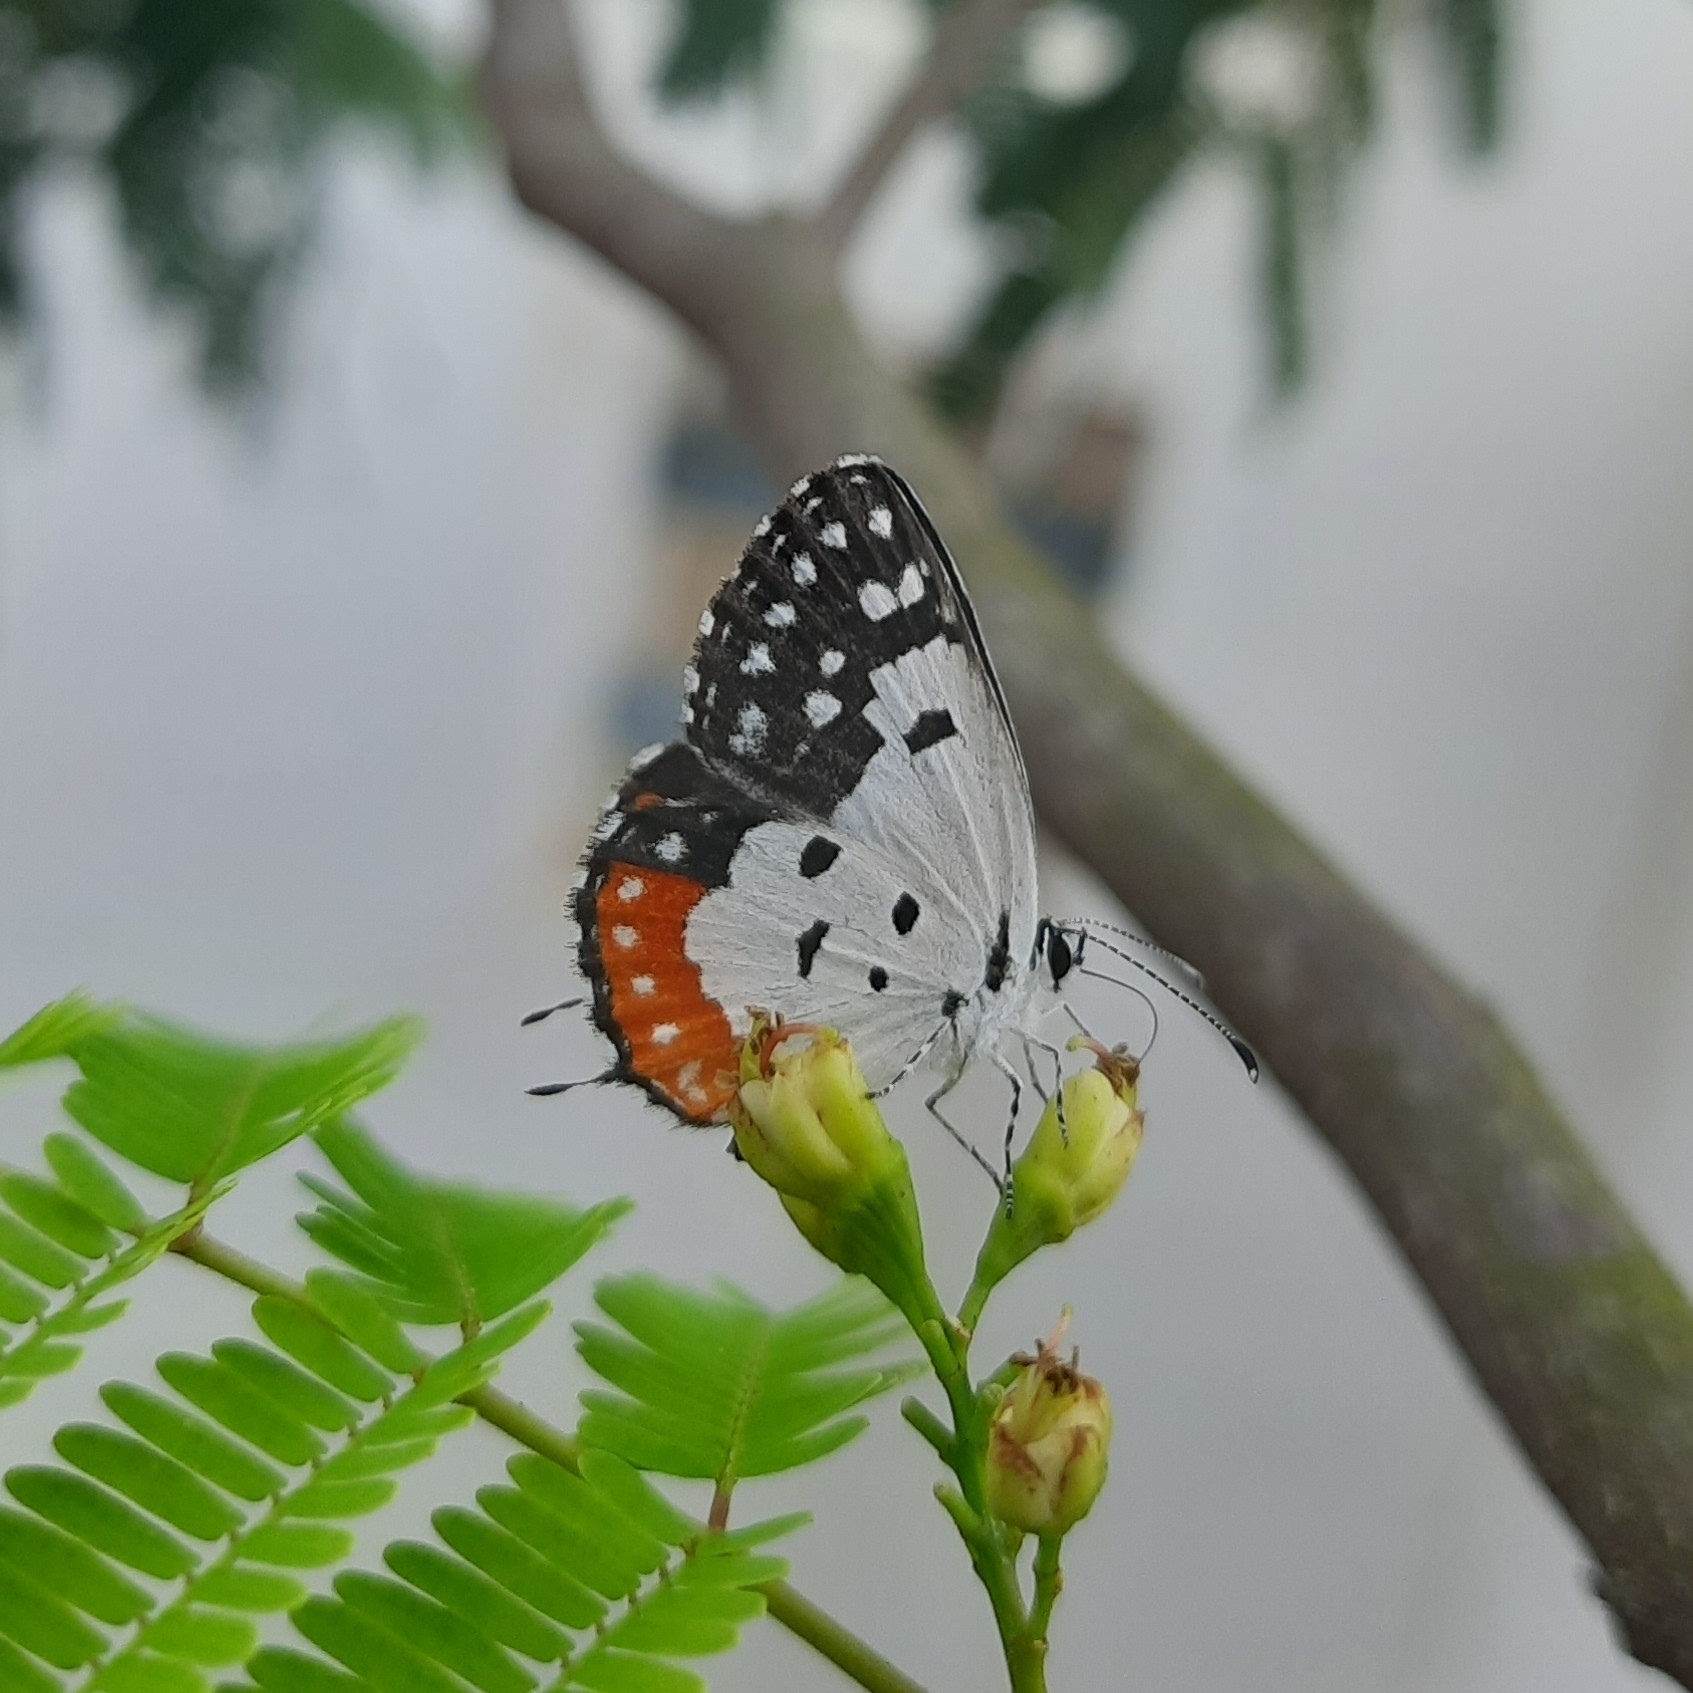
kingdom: Animalia
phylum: Arthropoda
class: Insecta
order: Lepidoptera
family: Lycaenidae
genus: Talicada
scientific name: Talicada nyseus
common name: Red pierrot
